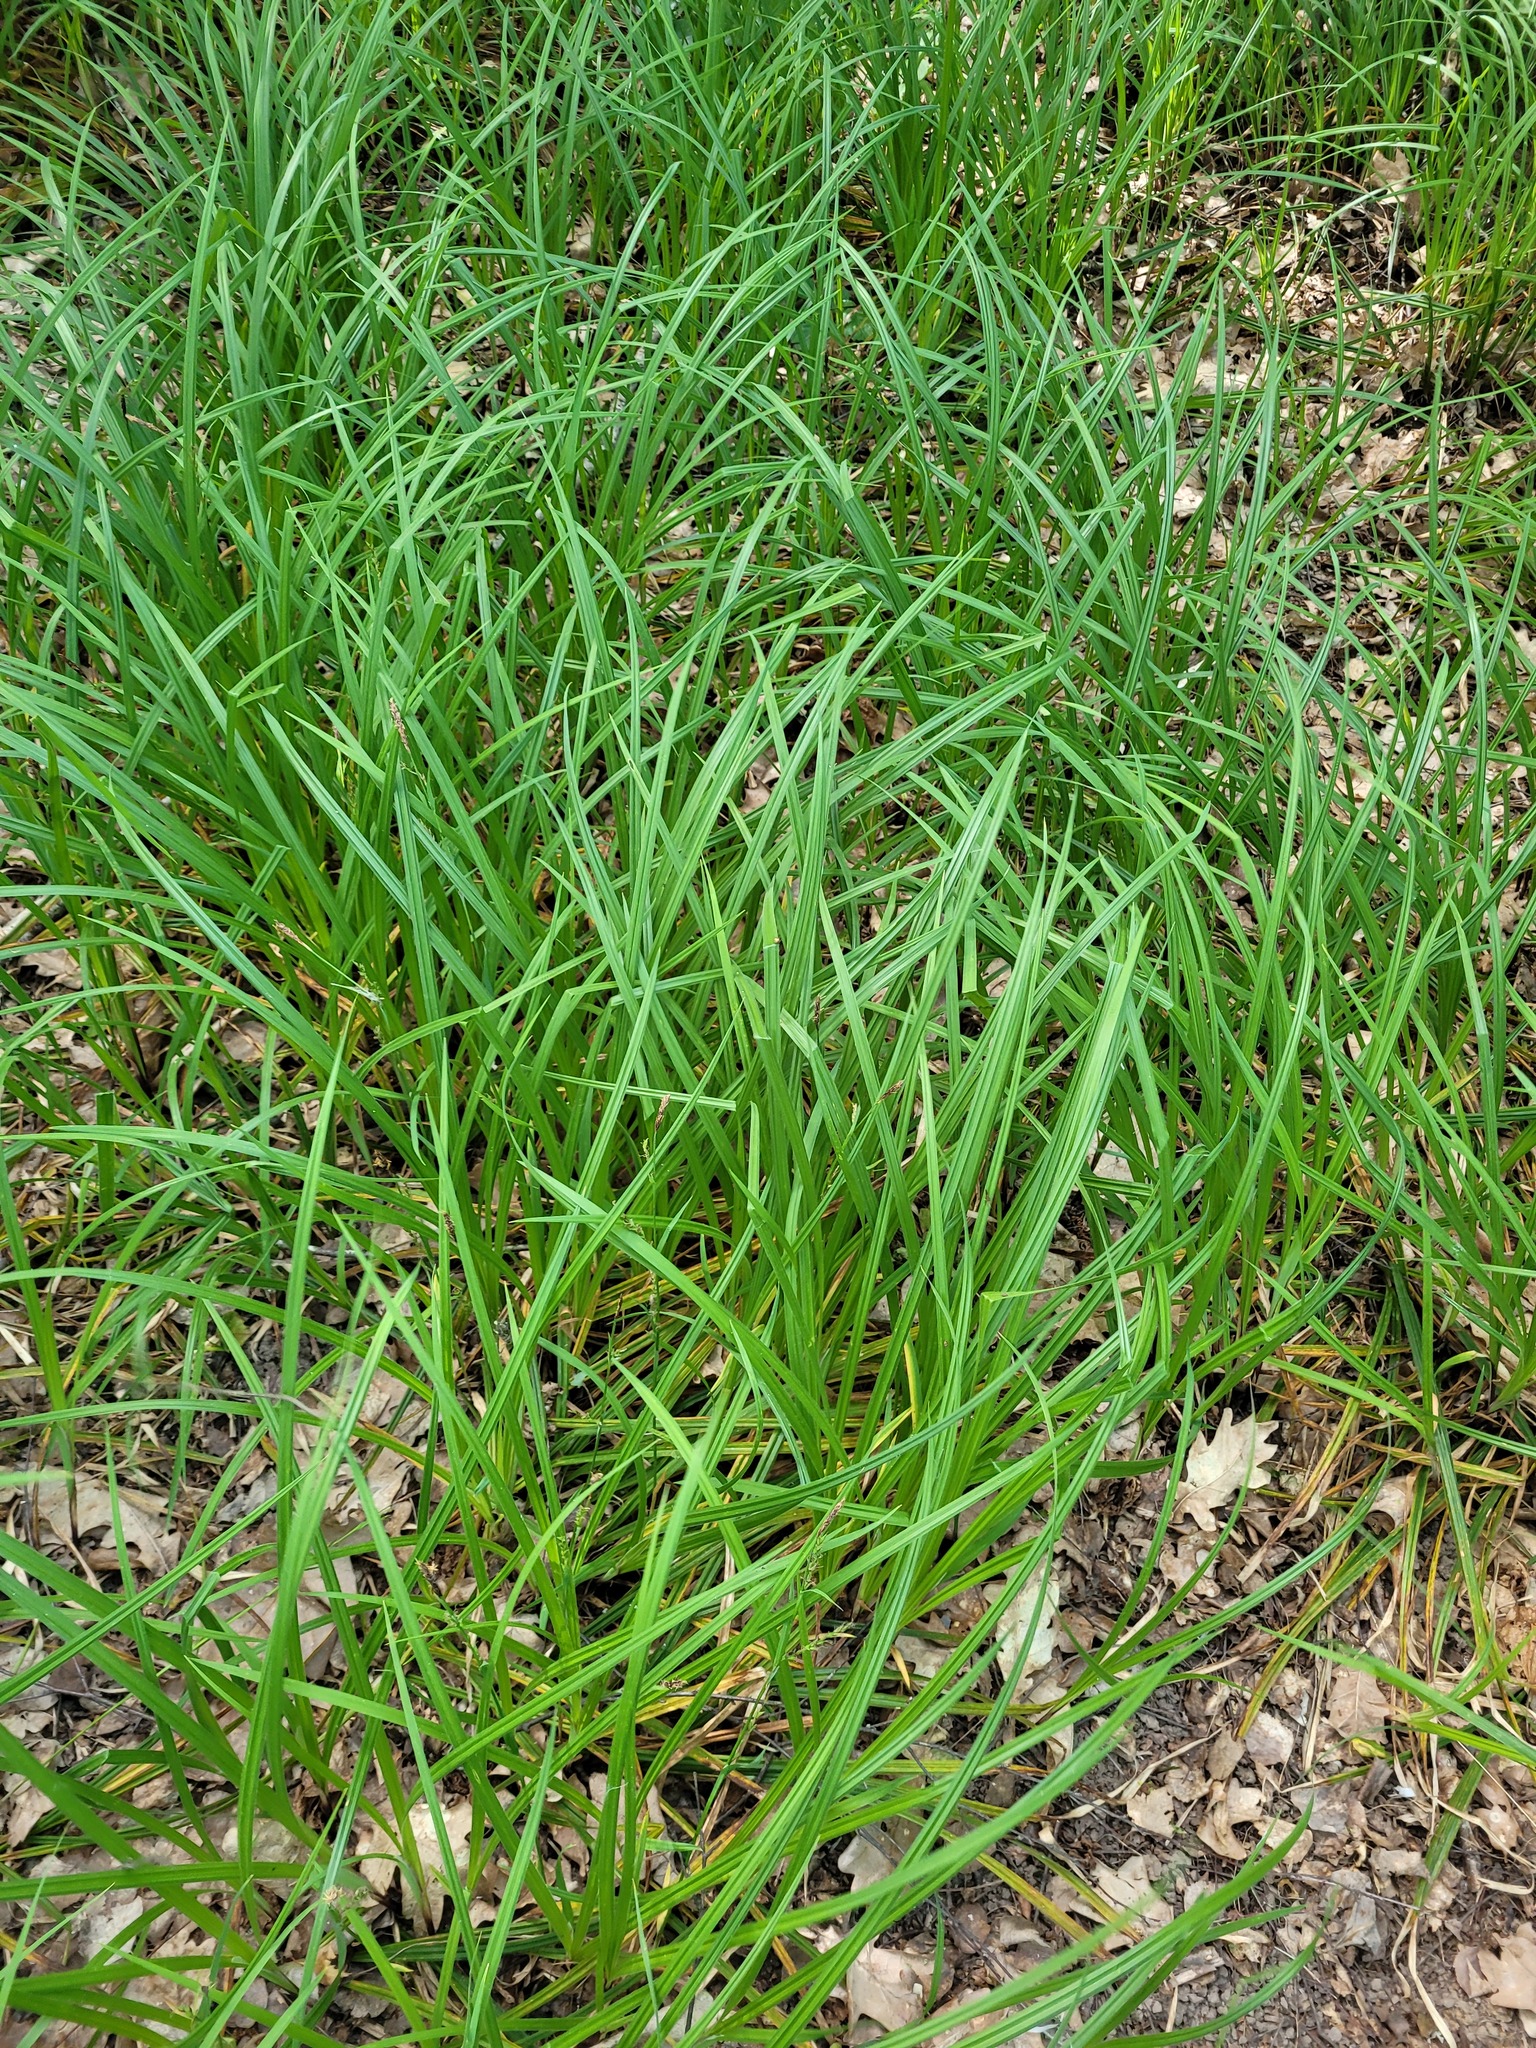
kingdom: Plantae
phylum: Tracheophyta
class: Liliopsida
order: Poales
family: Cyperaceae
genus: Carex
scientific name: Carex pilosa
